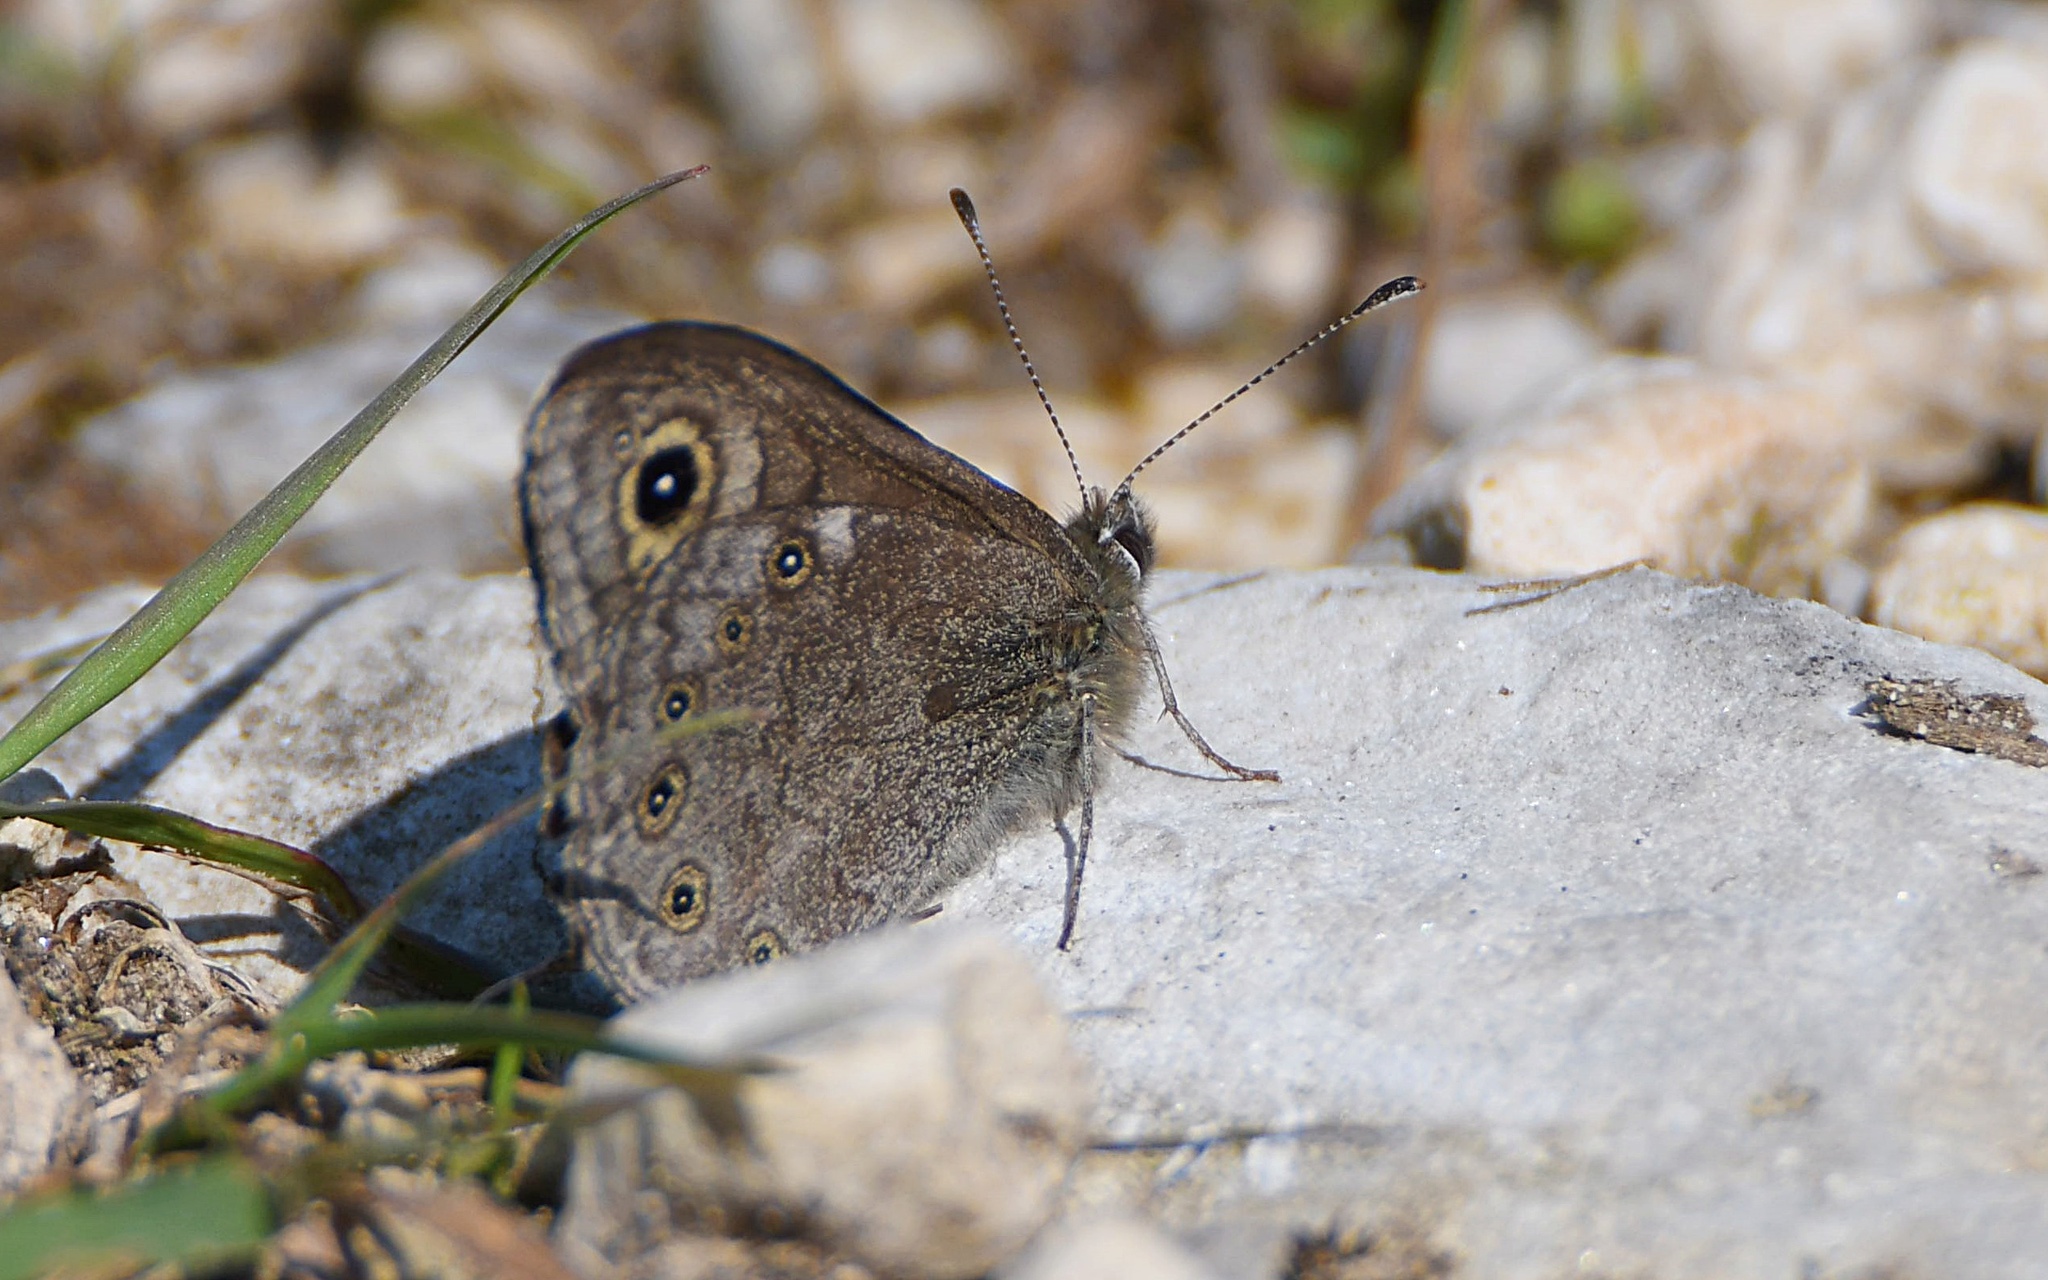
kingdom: Animalia
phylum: Arthropoda
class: Insecta
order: Lepidoptera
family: Nymphalidae
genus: Pararge
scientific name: Pararge petropolitana
